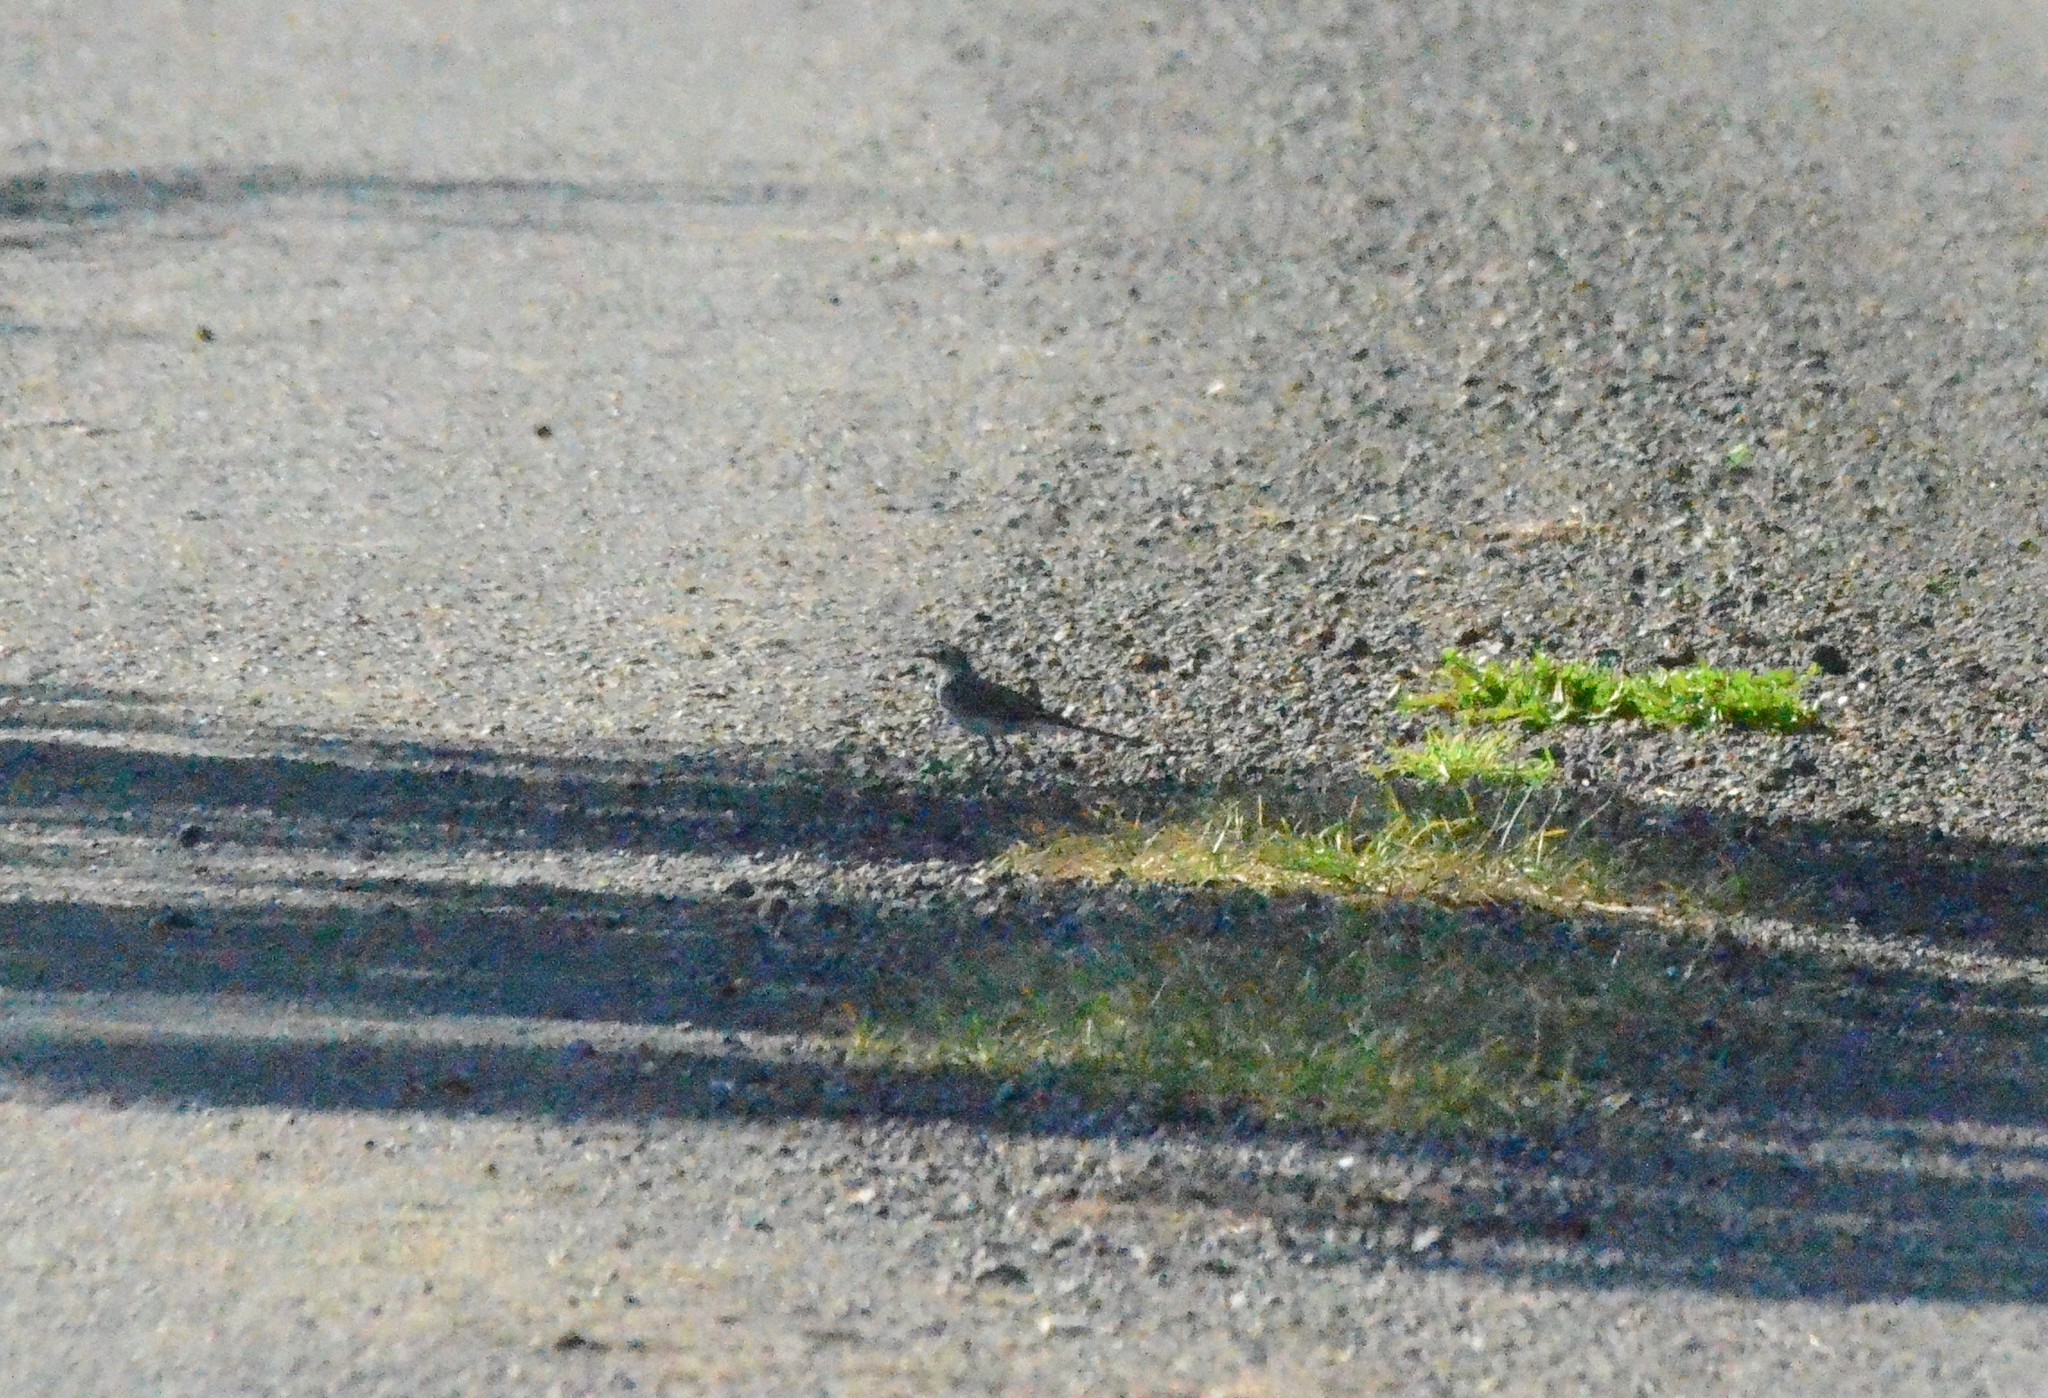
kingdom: Animalia
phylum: Chordata
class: Aves
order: Passeriformes
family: Motacillidae
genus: Motacilla
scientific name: Motacilla alba
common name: White wagtail
